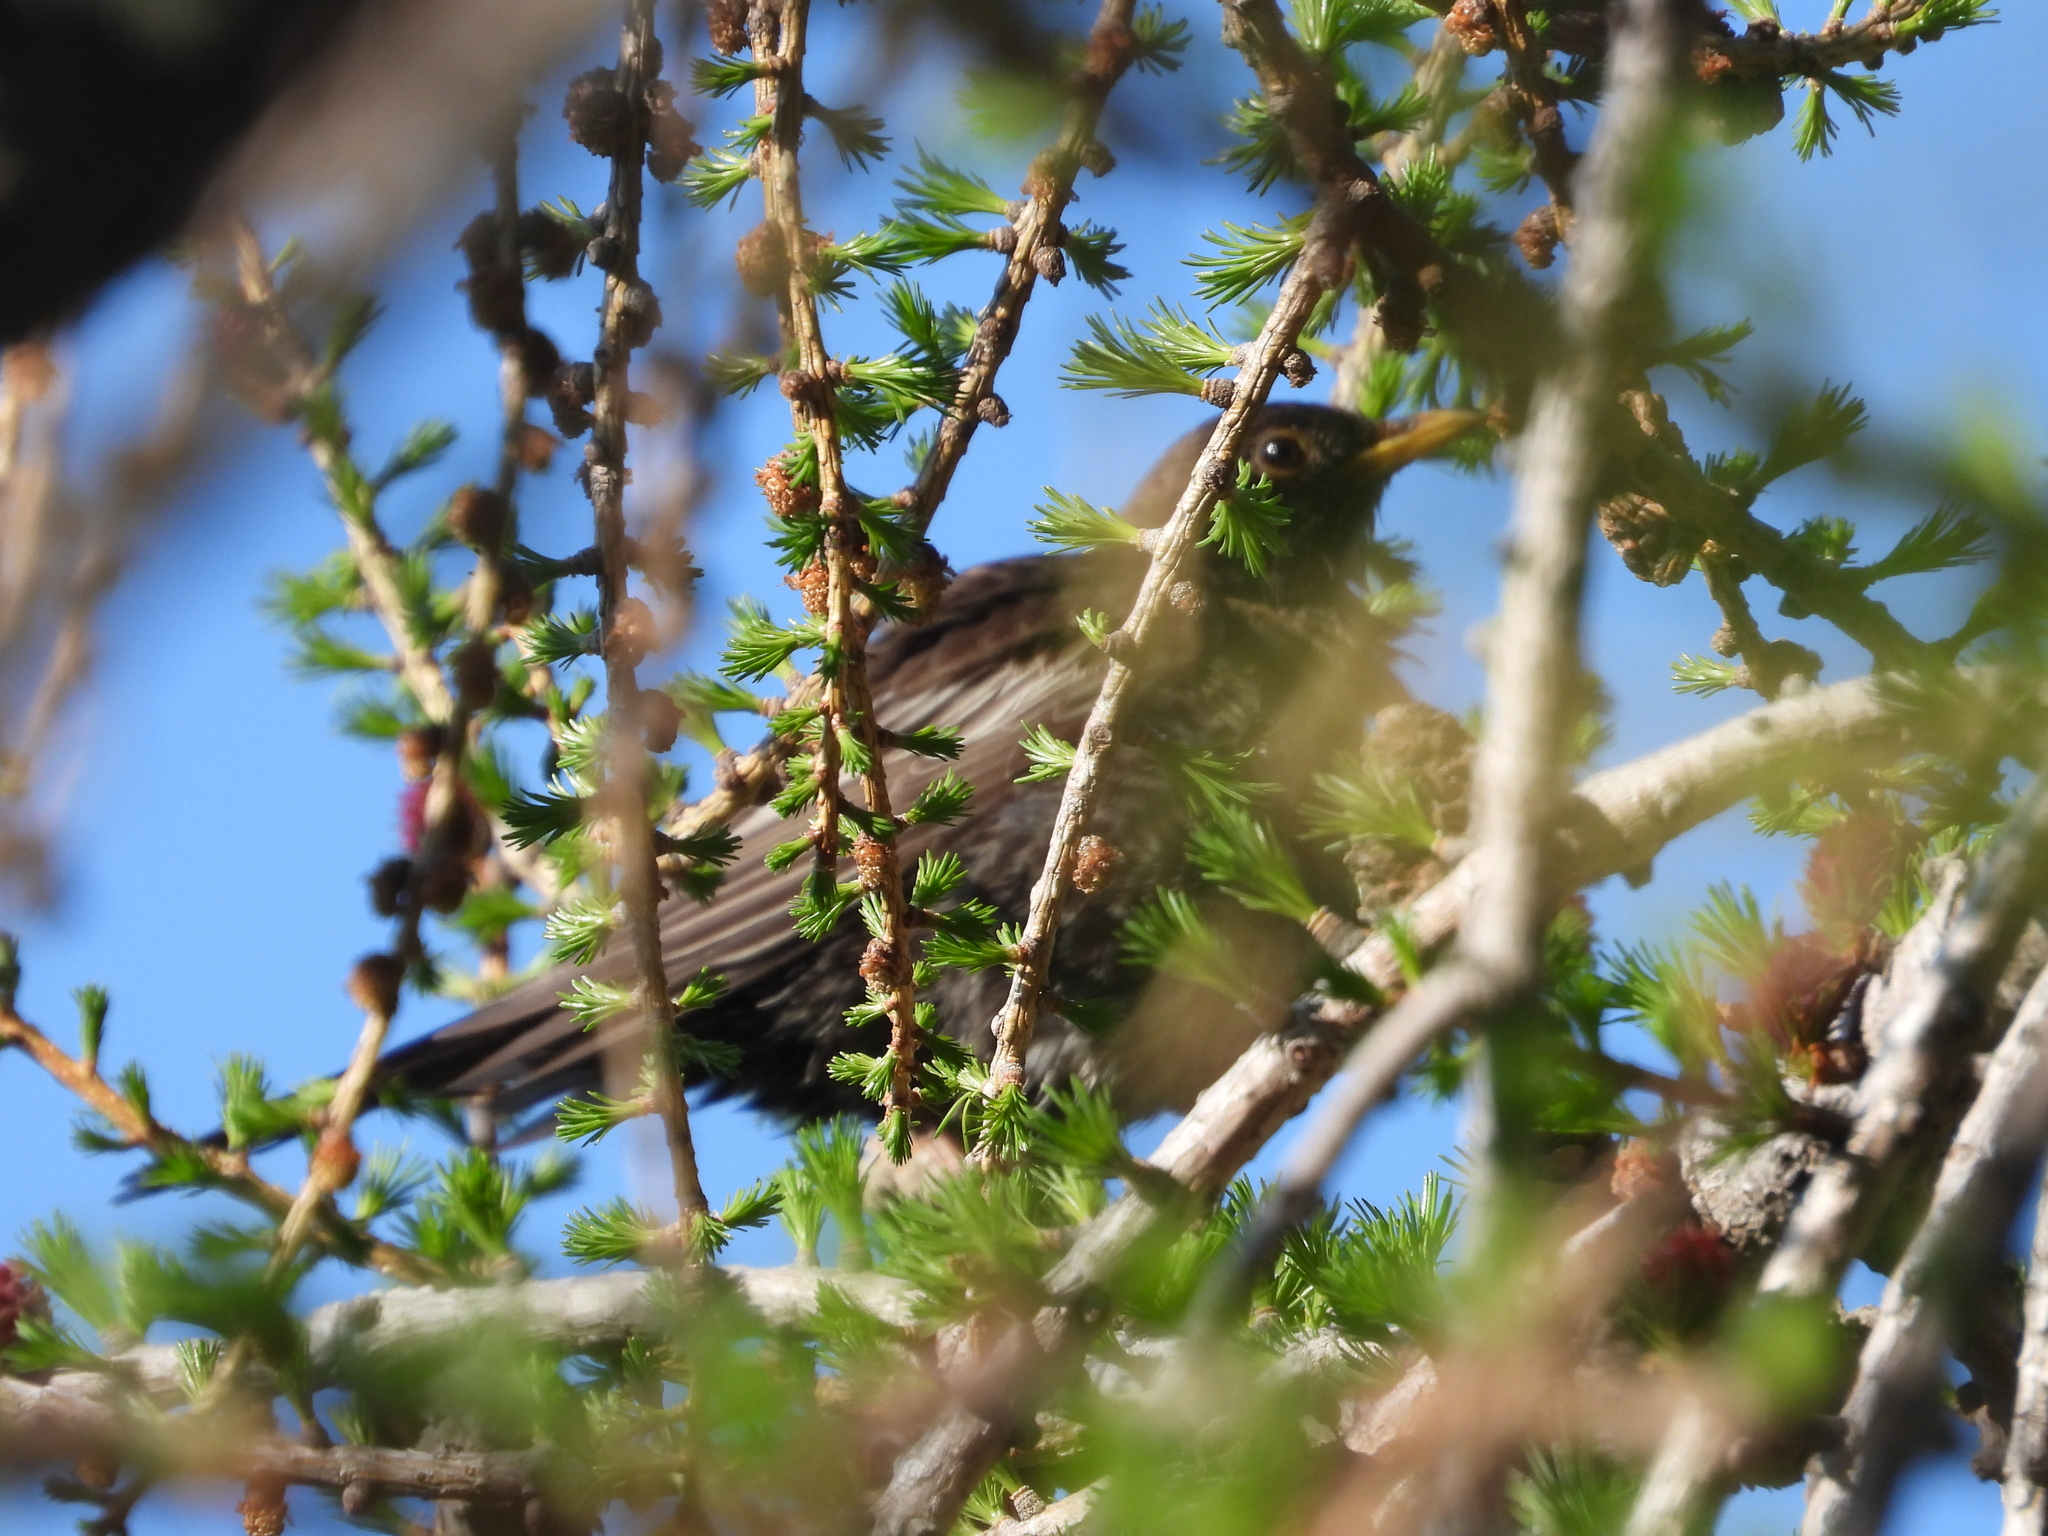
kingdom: Animalia
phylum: Chordata
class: Aves
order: Passeriformes
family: Turdidae
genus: Turdus
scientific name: Turdus torquatus
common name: Ring ouzel
